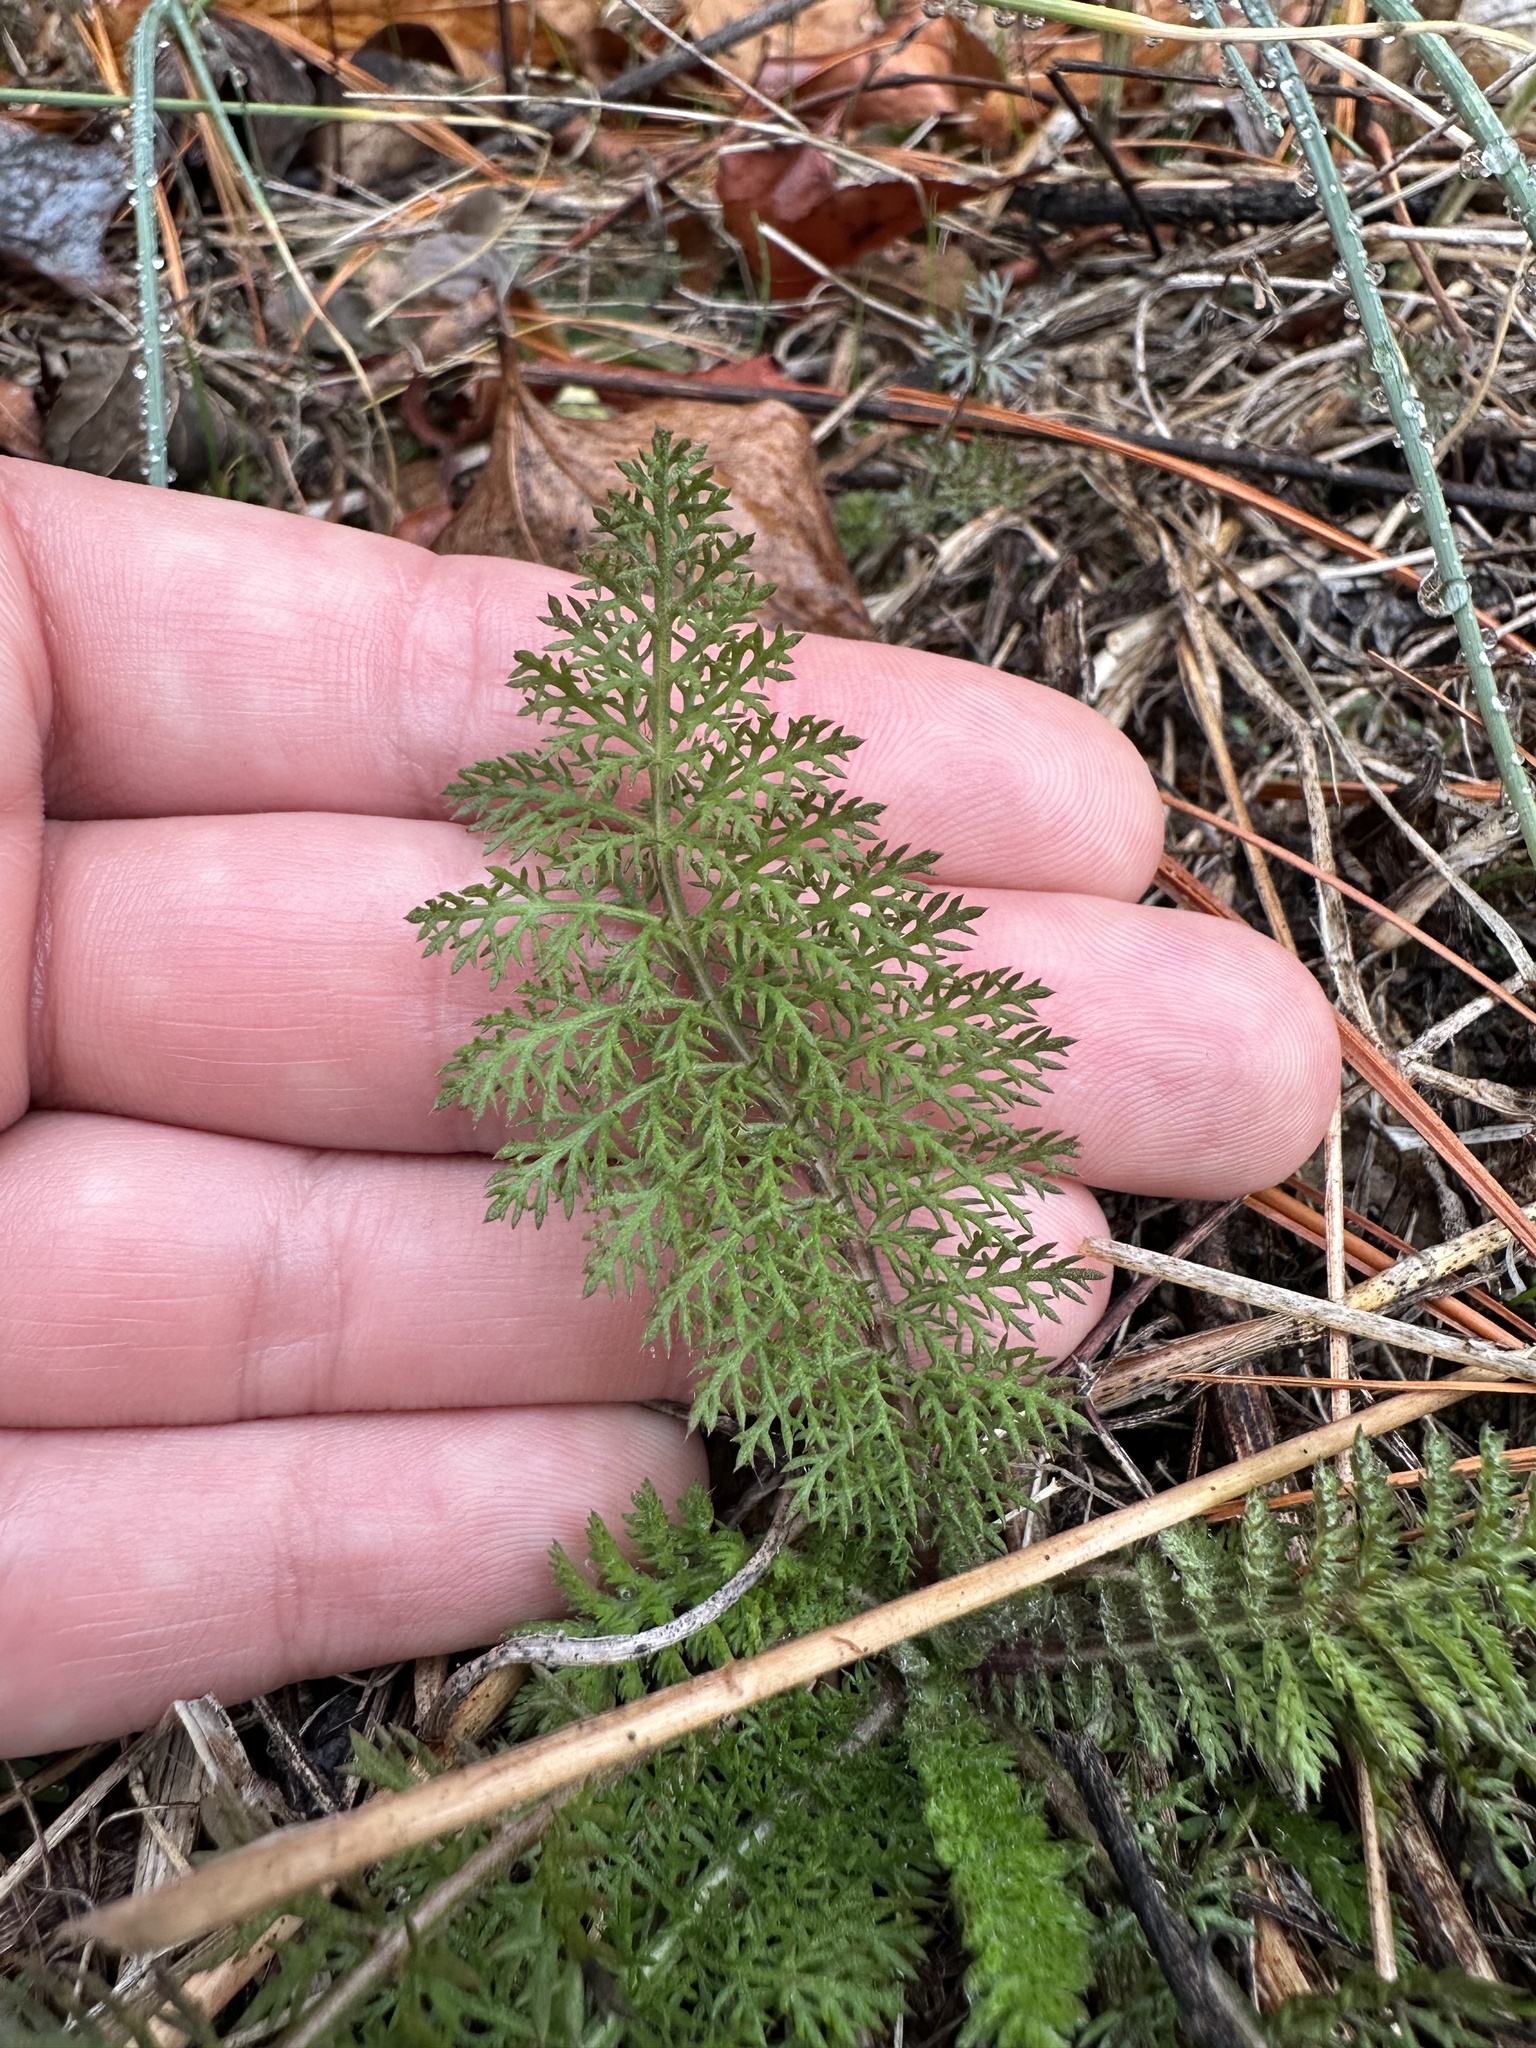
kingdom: Plantae
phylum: Tracheophyta
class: Magnoliopsida
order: Asterales
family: Asteraceae
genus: Achillea
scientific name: Achillea millefolium
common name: Yarrow
